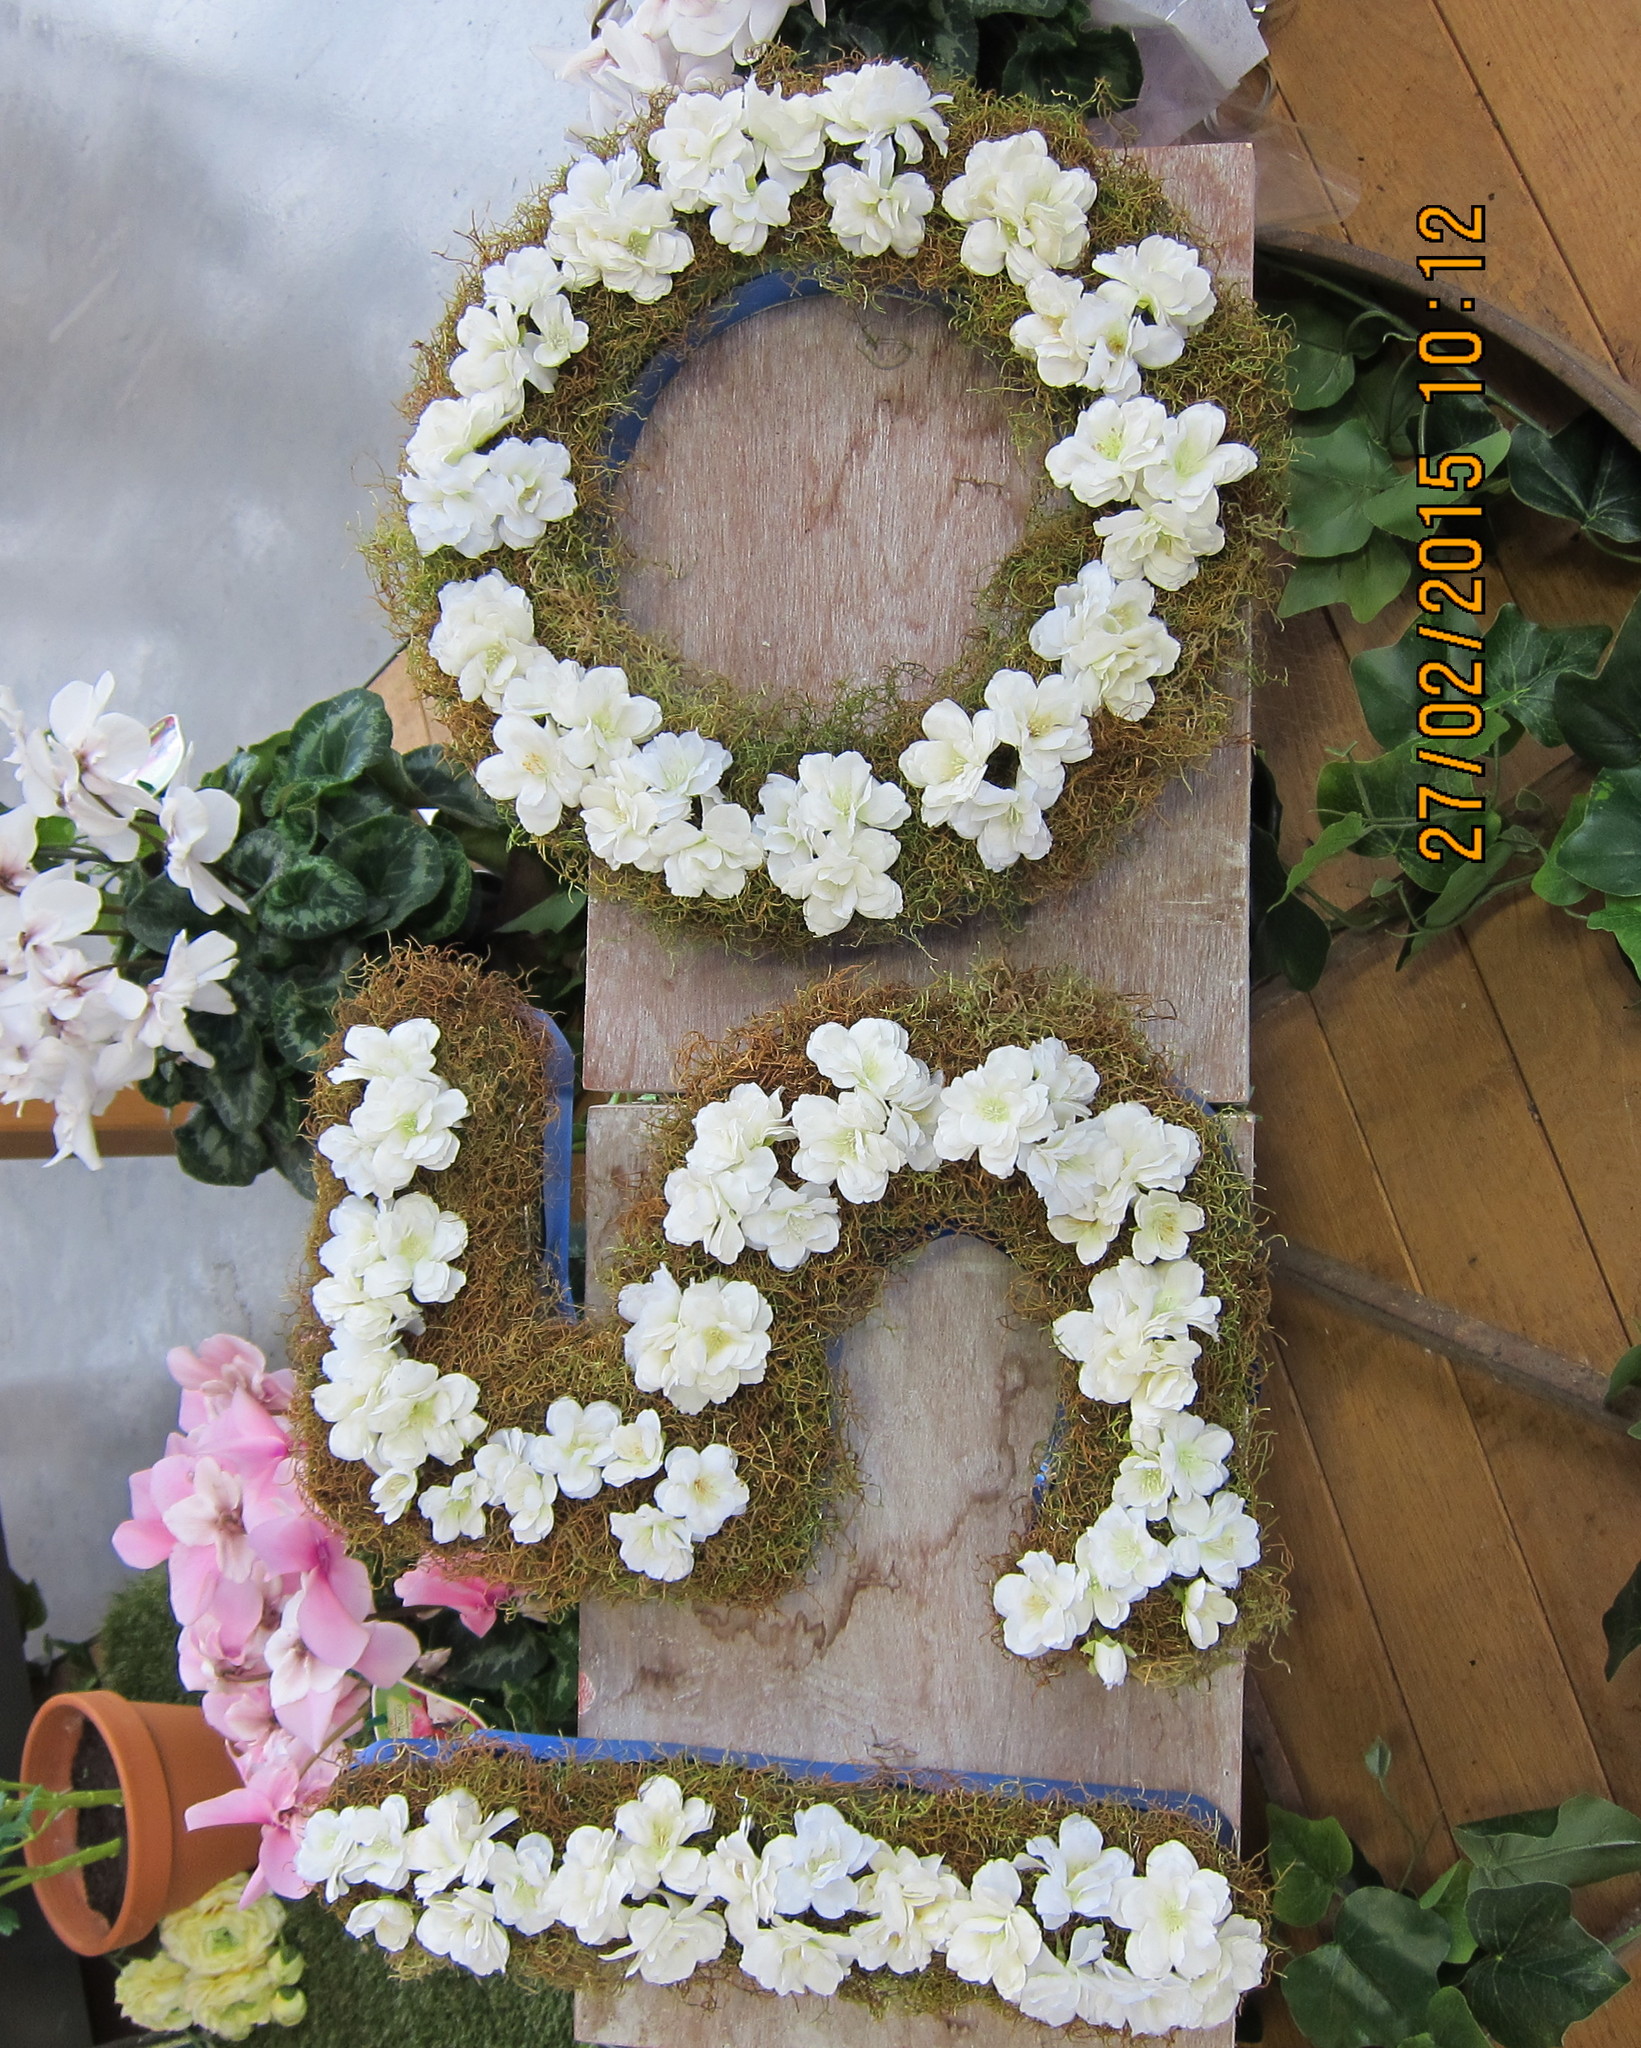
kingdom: Plantae
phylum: Bryophyta
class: Bryopsida
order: Hypnales
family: Meteoriaceae
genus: Papillaria
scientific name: Papillaria flexicaulis
